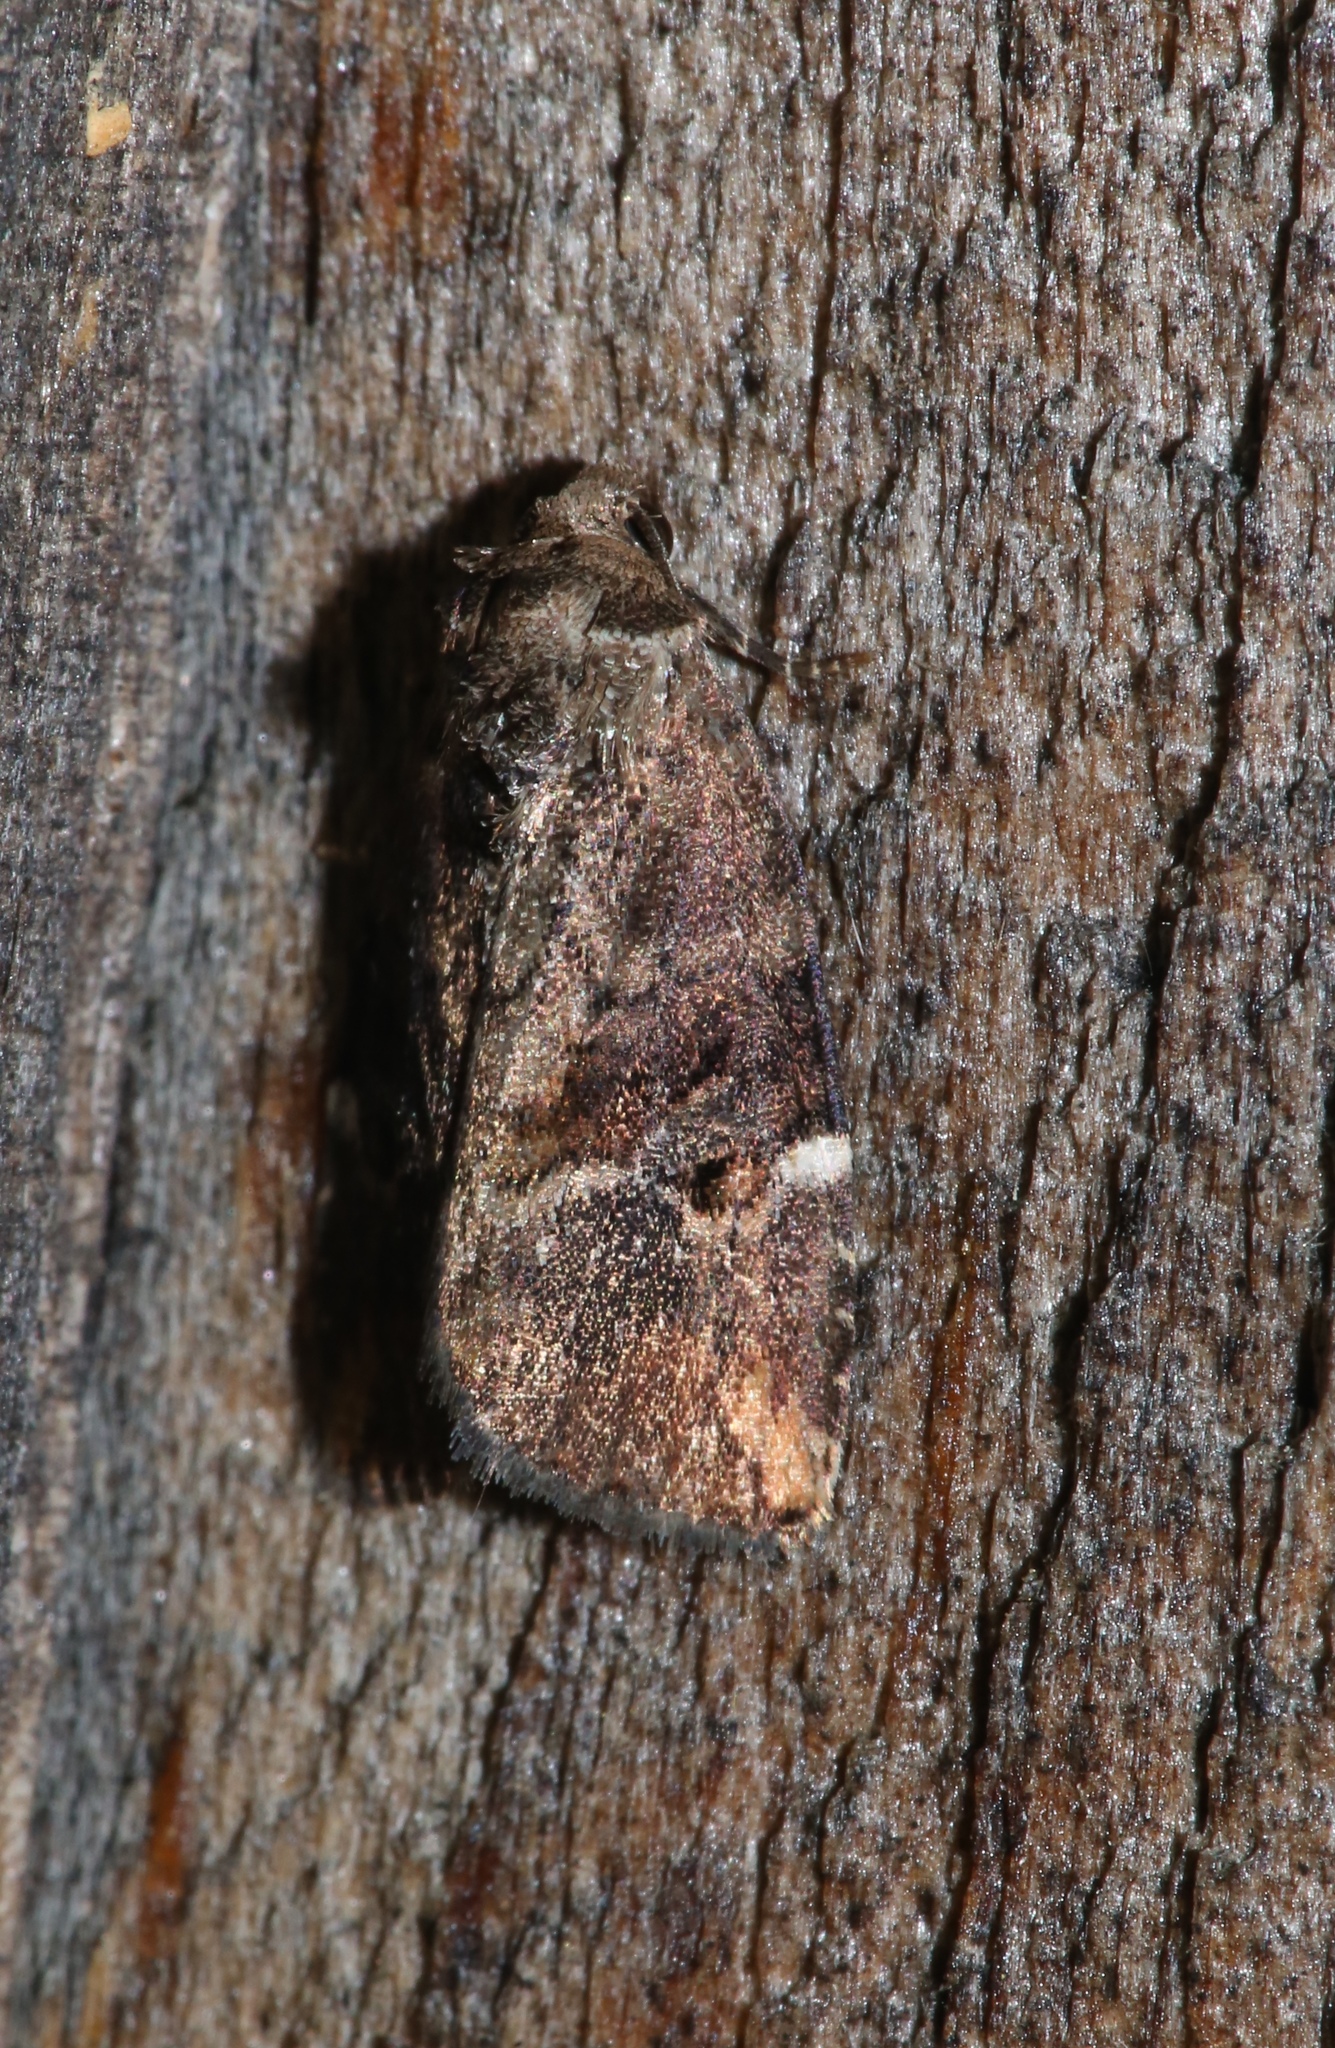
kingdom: Animalia
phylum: Arthropoda
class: Insecta
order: Lepidoptera
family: Noctuidae
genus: Elaphria
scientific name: Elaphria versicolor
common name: Fir harlequin
